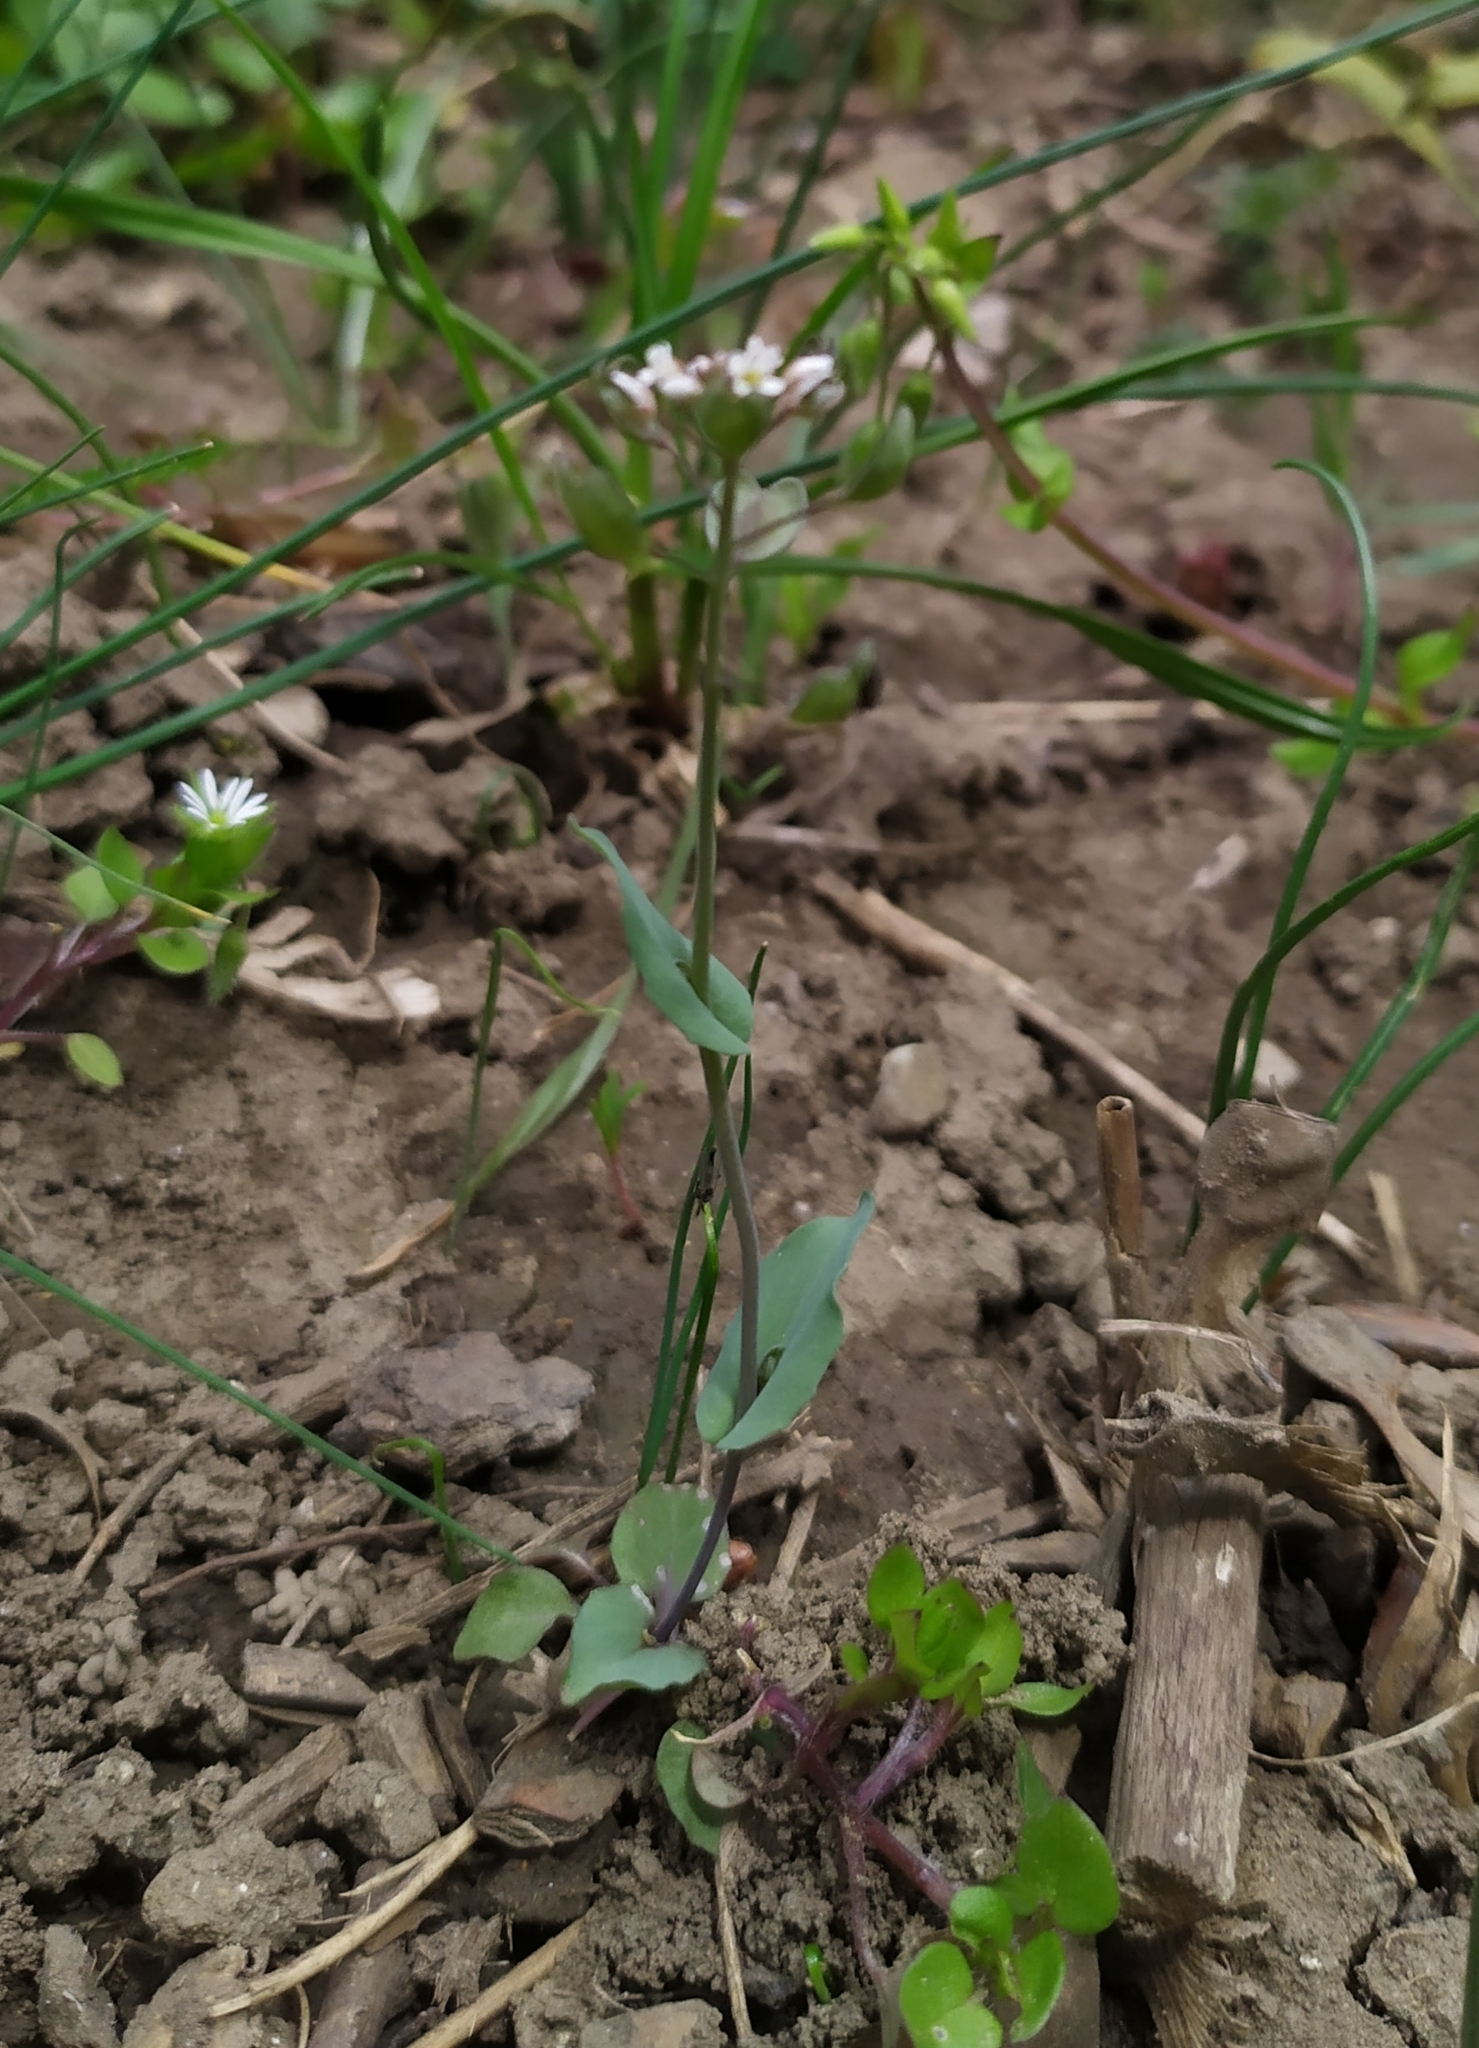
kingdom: Plantae
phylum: Tracheophyta
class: Magnoliopsida
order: Brassicales
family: Brassicaceae
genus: Noccaea
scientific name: Noccaea perfoliata
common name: Perfoliate pennycress
